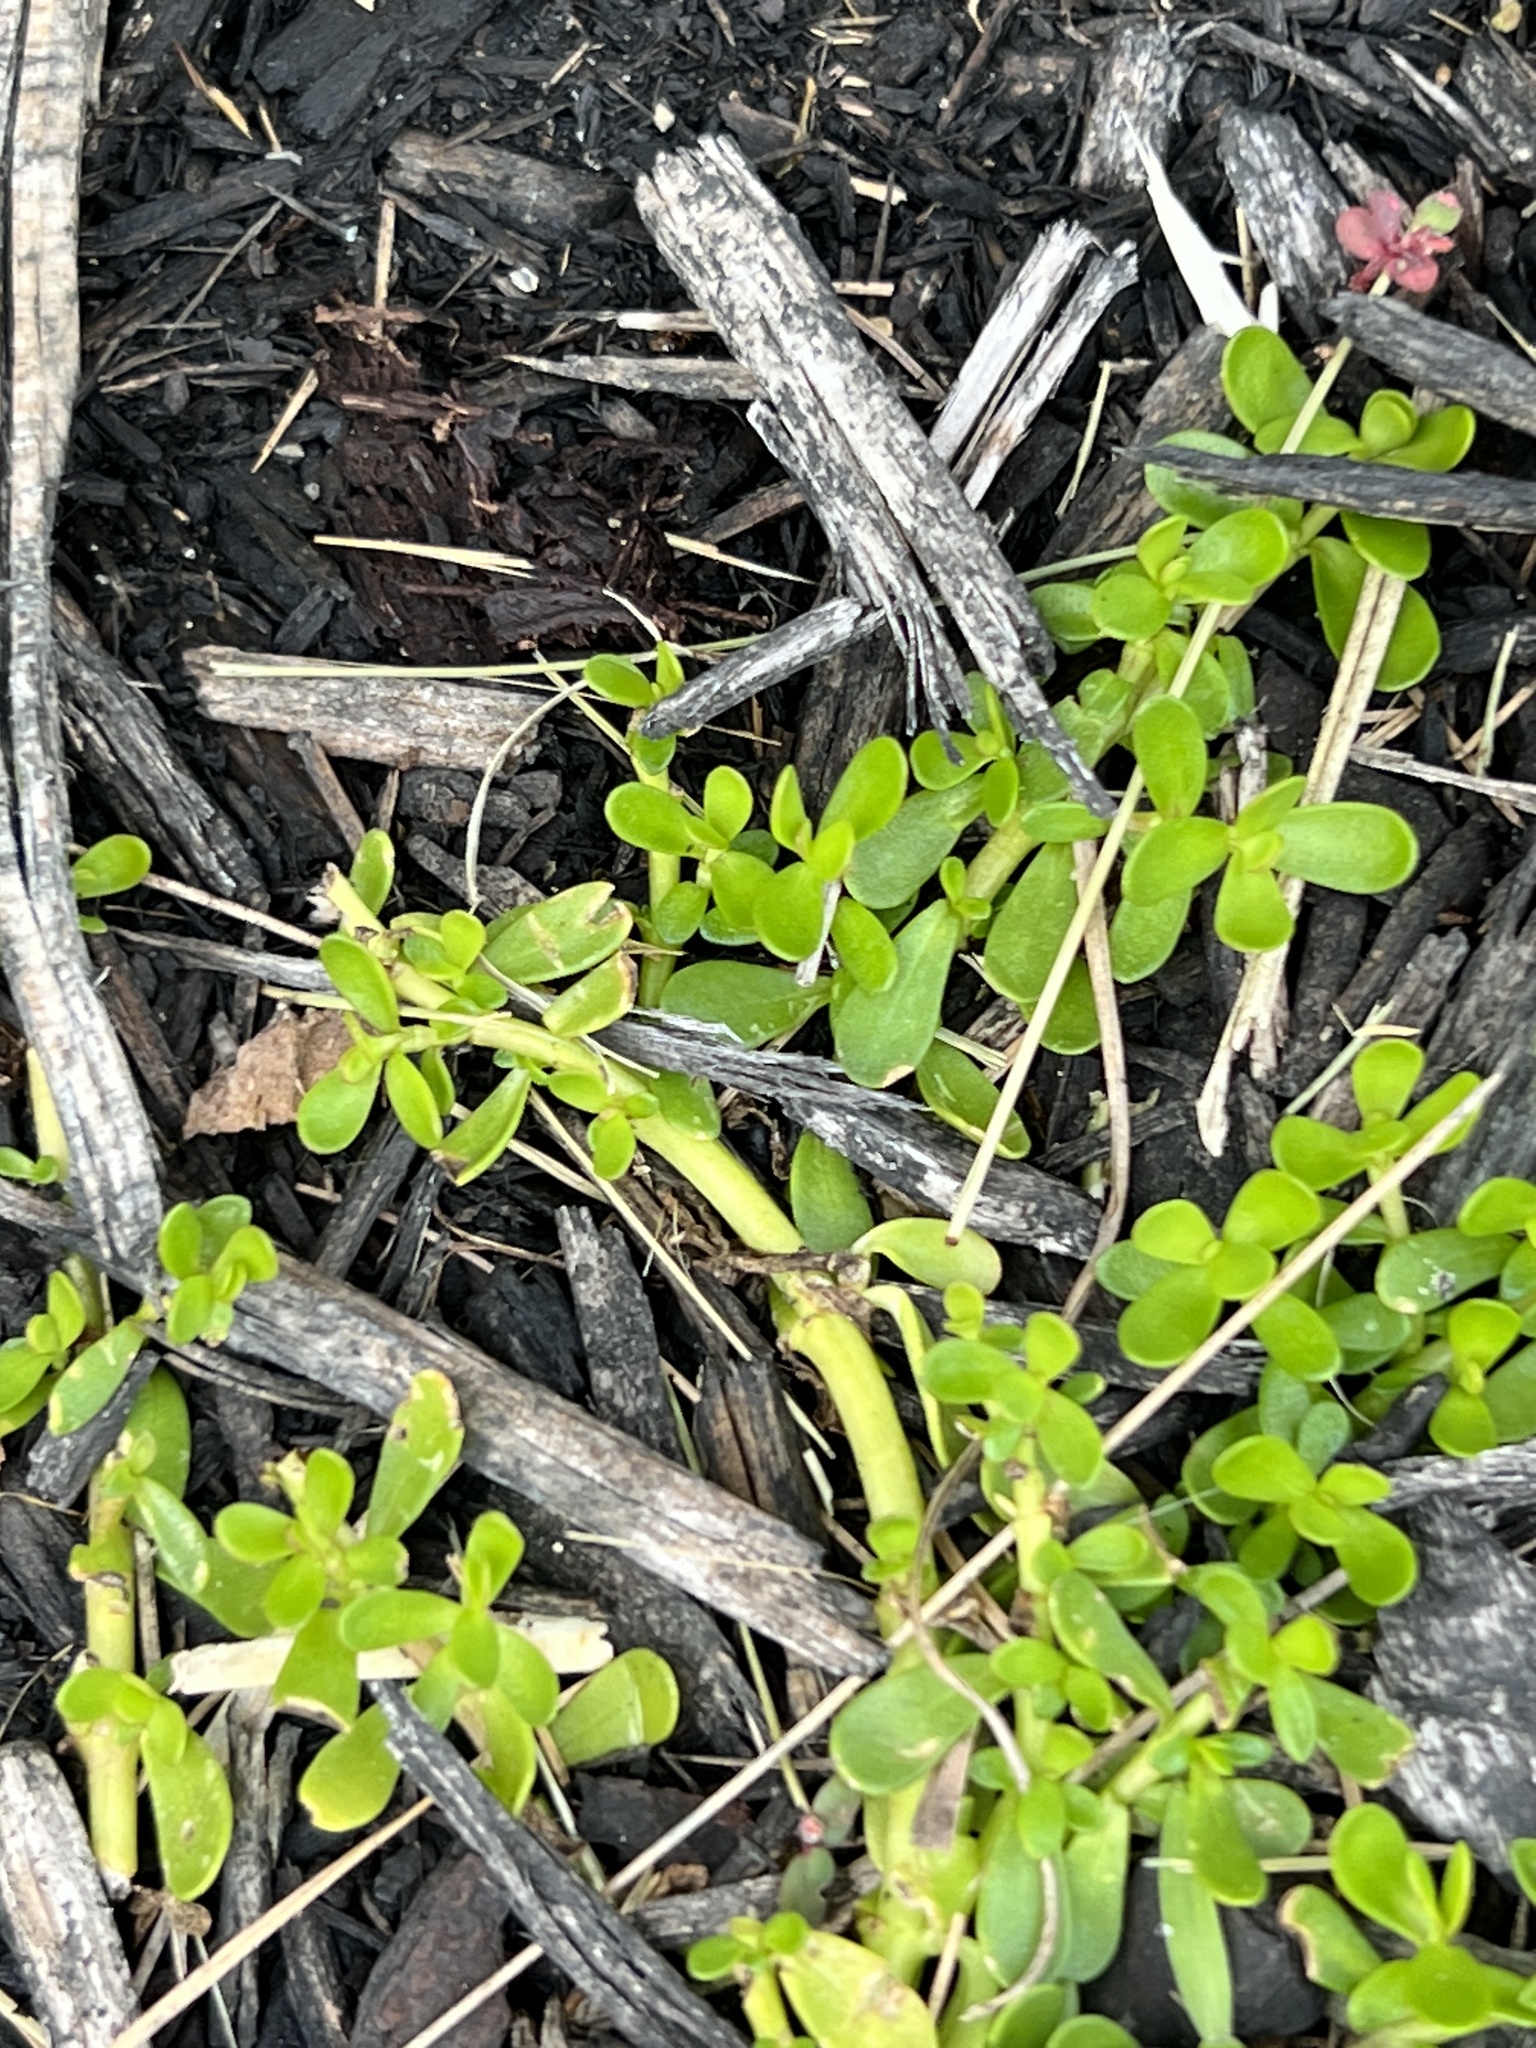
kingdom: Plantae
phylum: Tracheophyta
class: Magnoliopsida
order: Lamiales
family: Plantaginaceae
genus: Bacopa
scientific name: Bacopa monnieri
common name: Indian-pennywort
